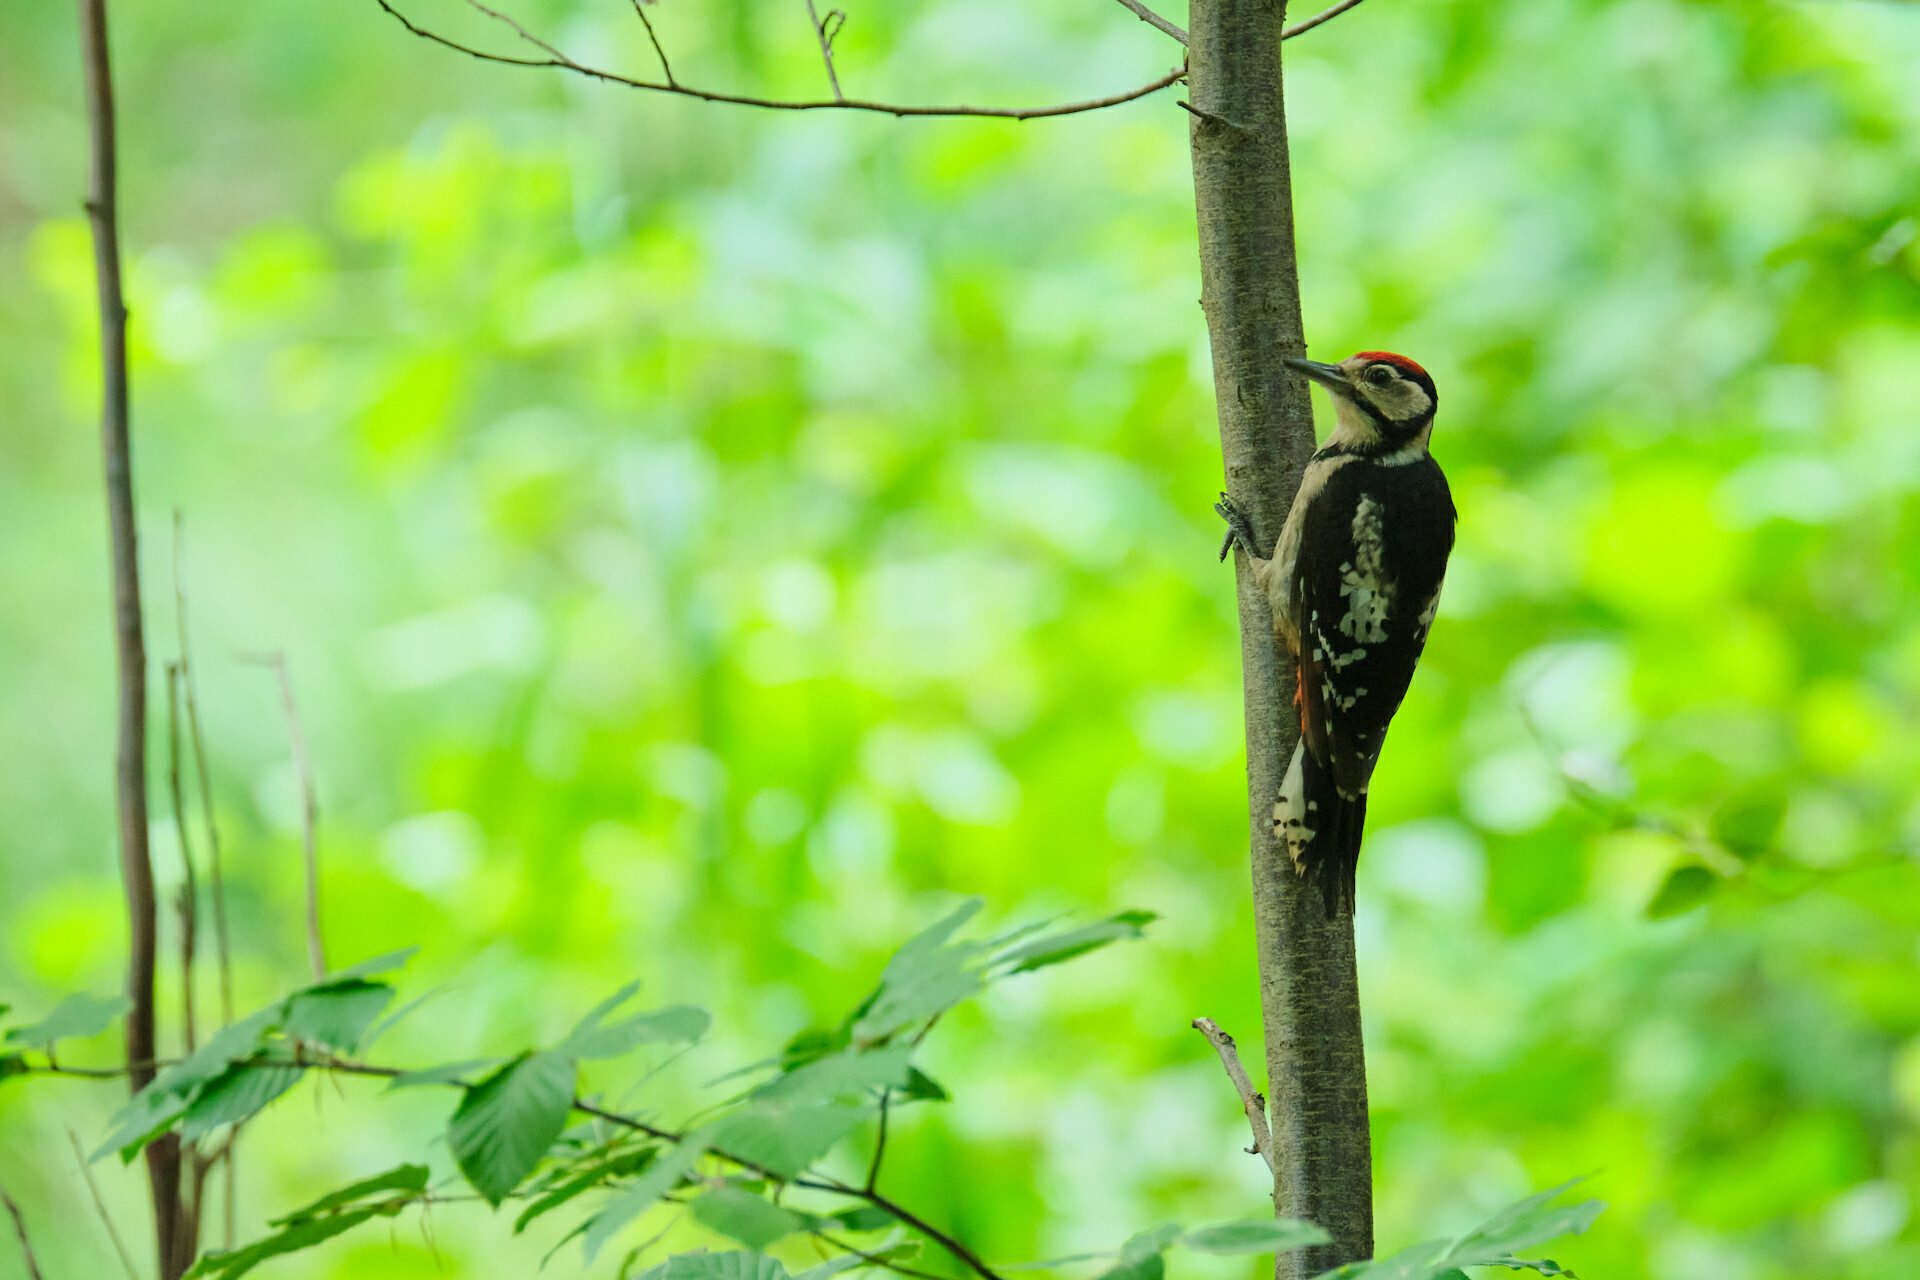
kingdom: Animalia
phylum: Chordata
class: Aves
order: Piciformes
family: Picidae
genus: Dendrocopos
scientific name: Dendrocopos major
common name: Great spotted woodpecker
